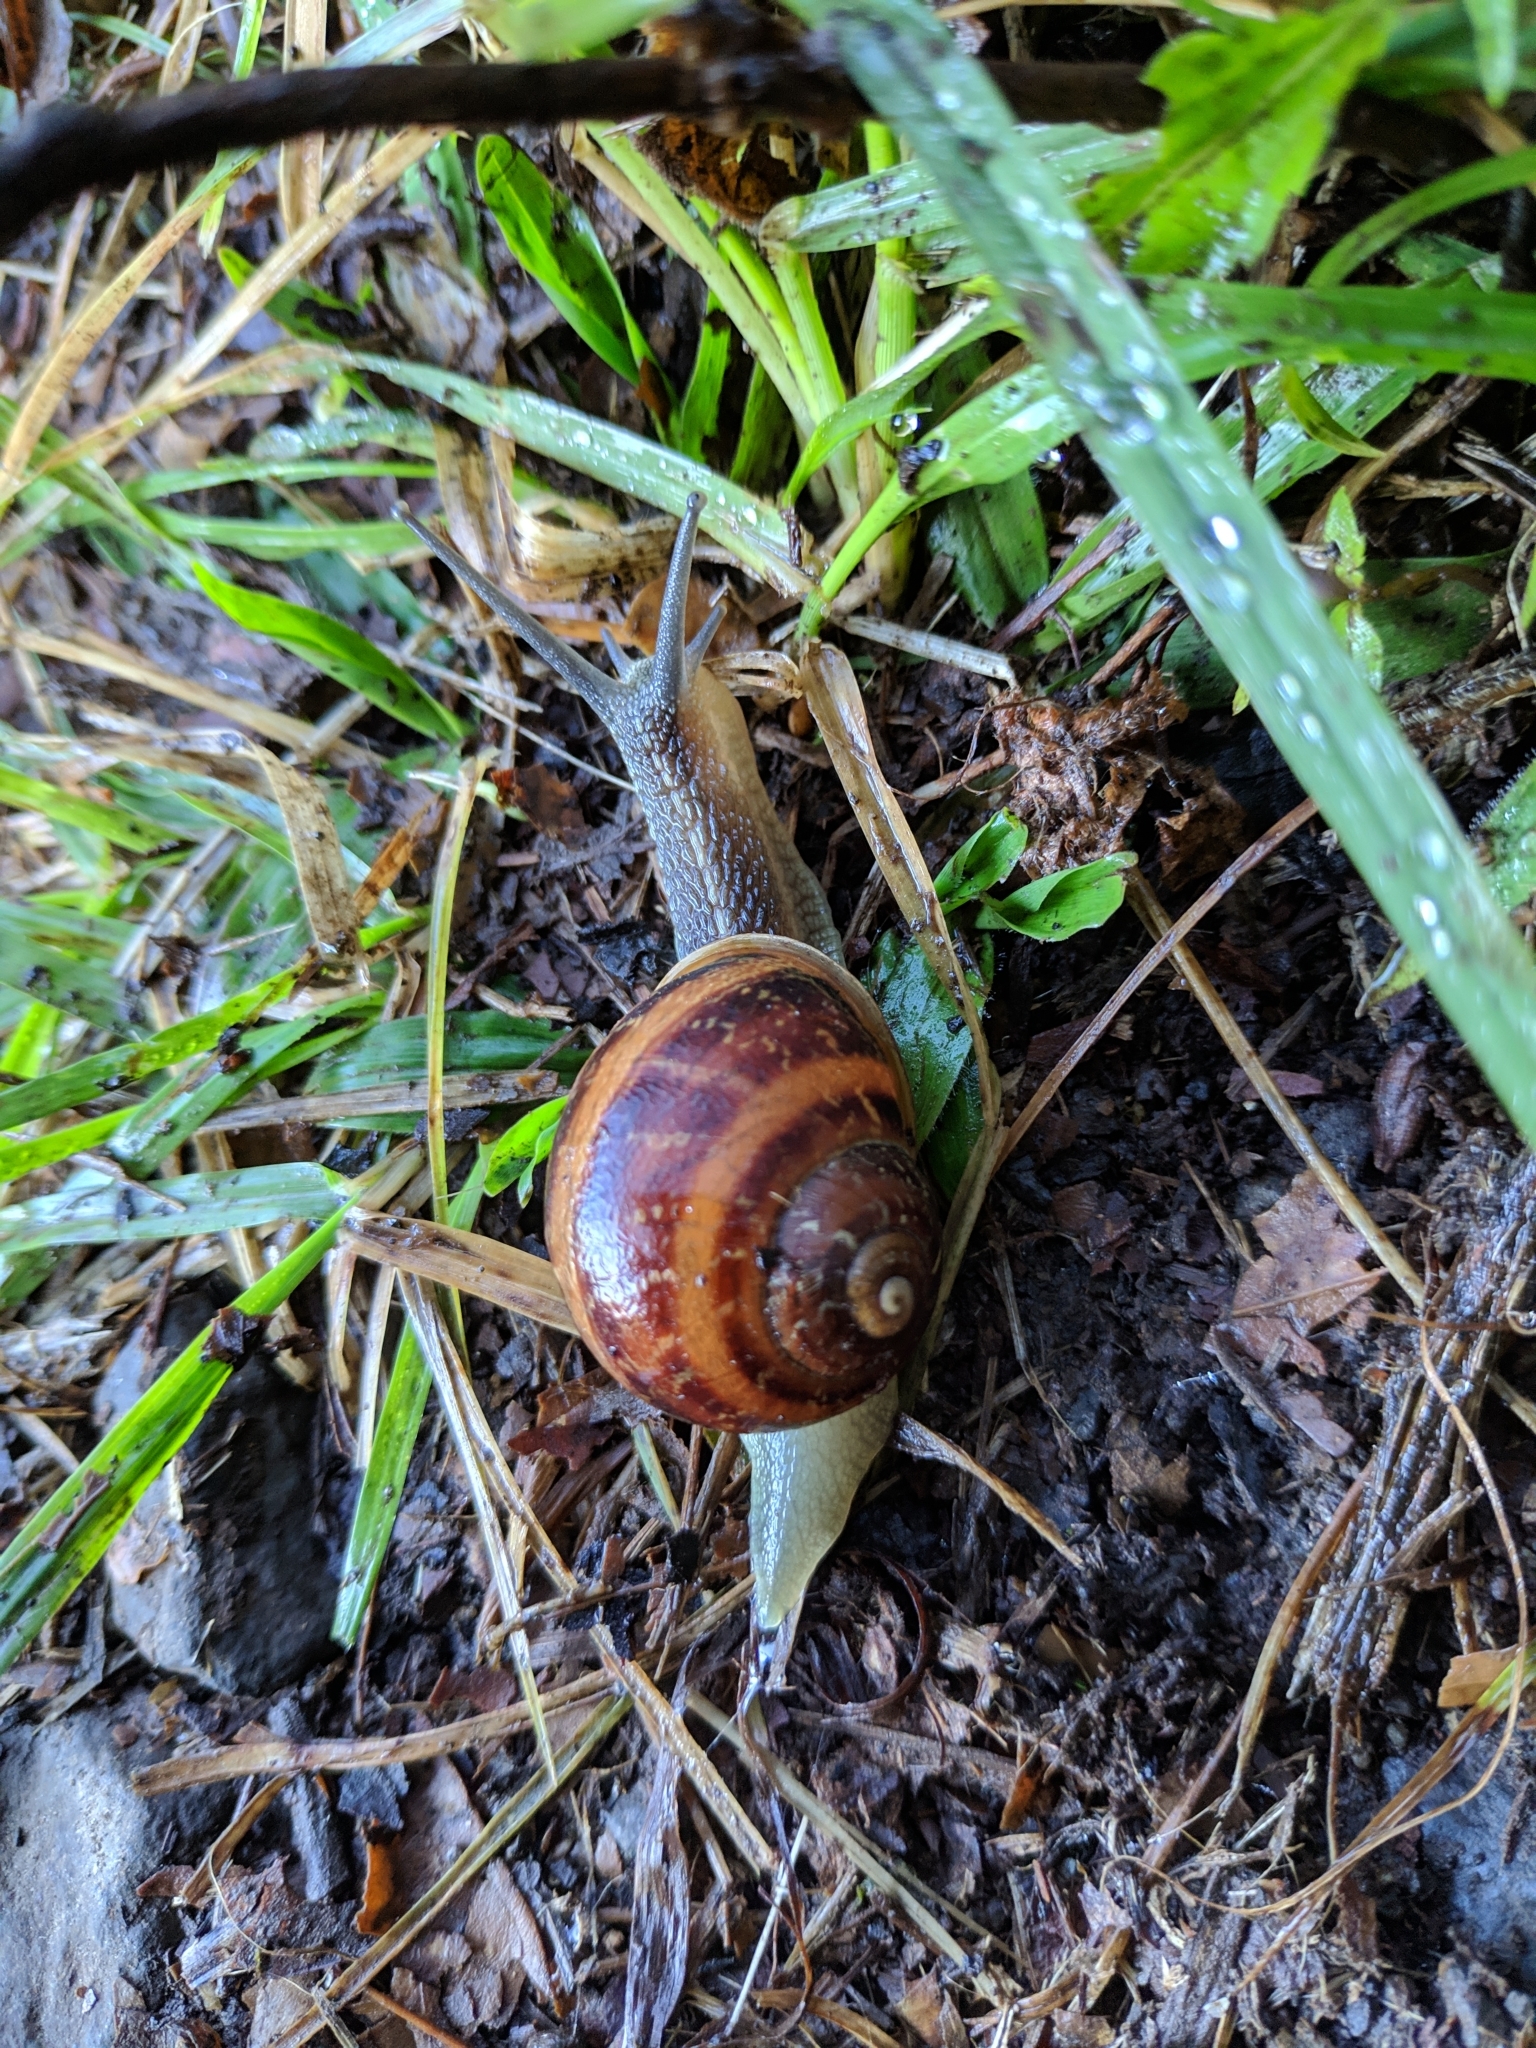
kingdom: Animalia
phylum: Mollusca
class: Gastropoda
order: Stylommatophora
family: Helicidae
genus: Cornu
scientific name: Cornu aspersum
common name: Brown garden snail
